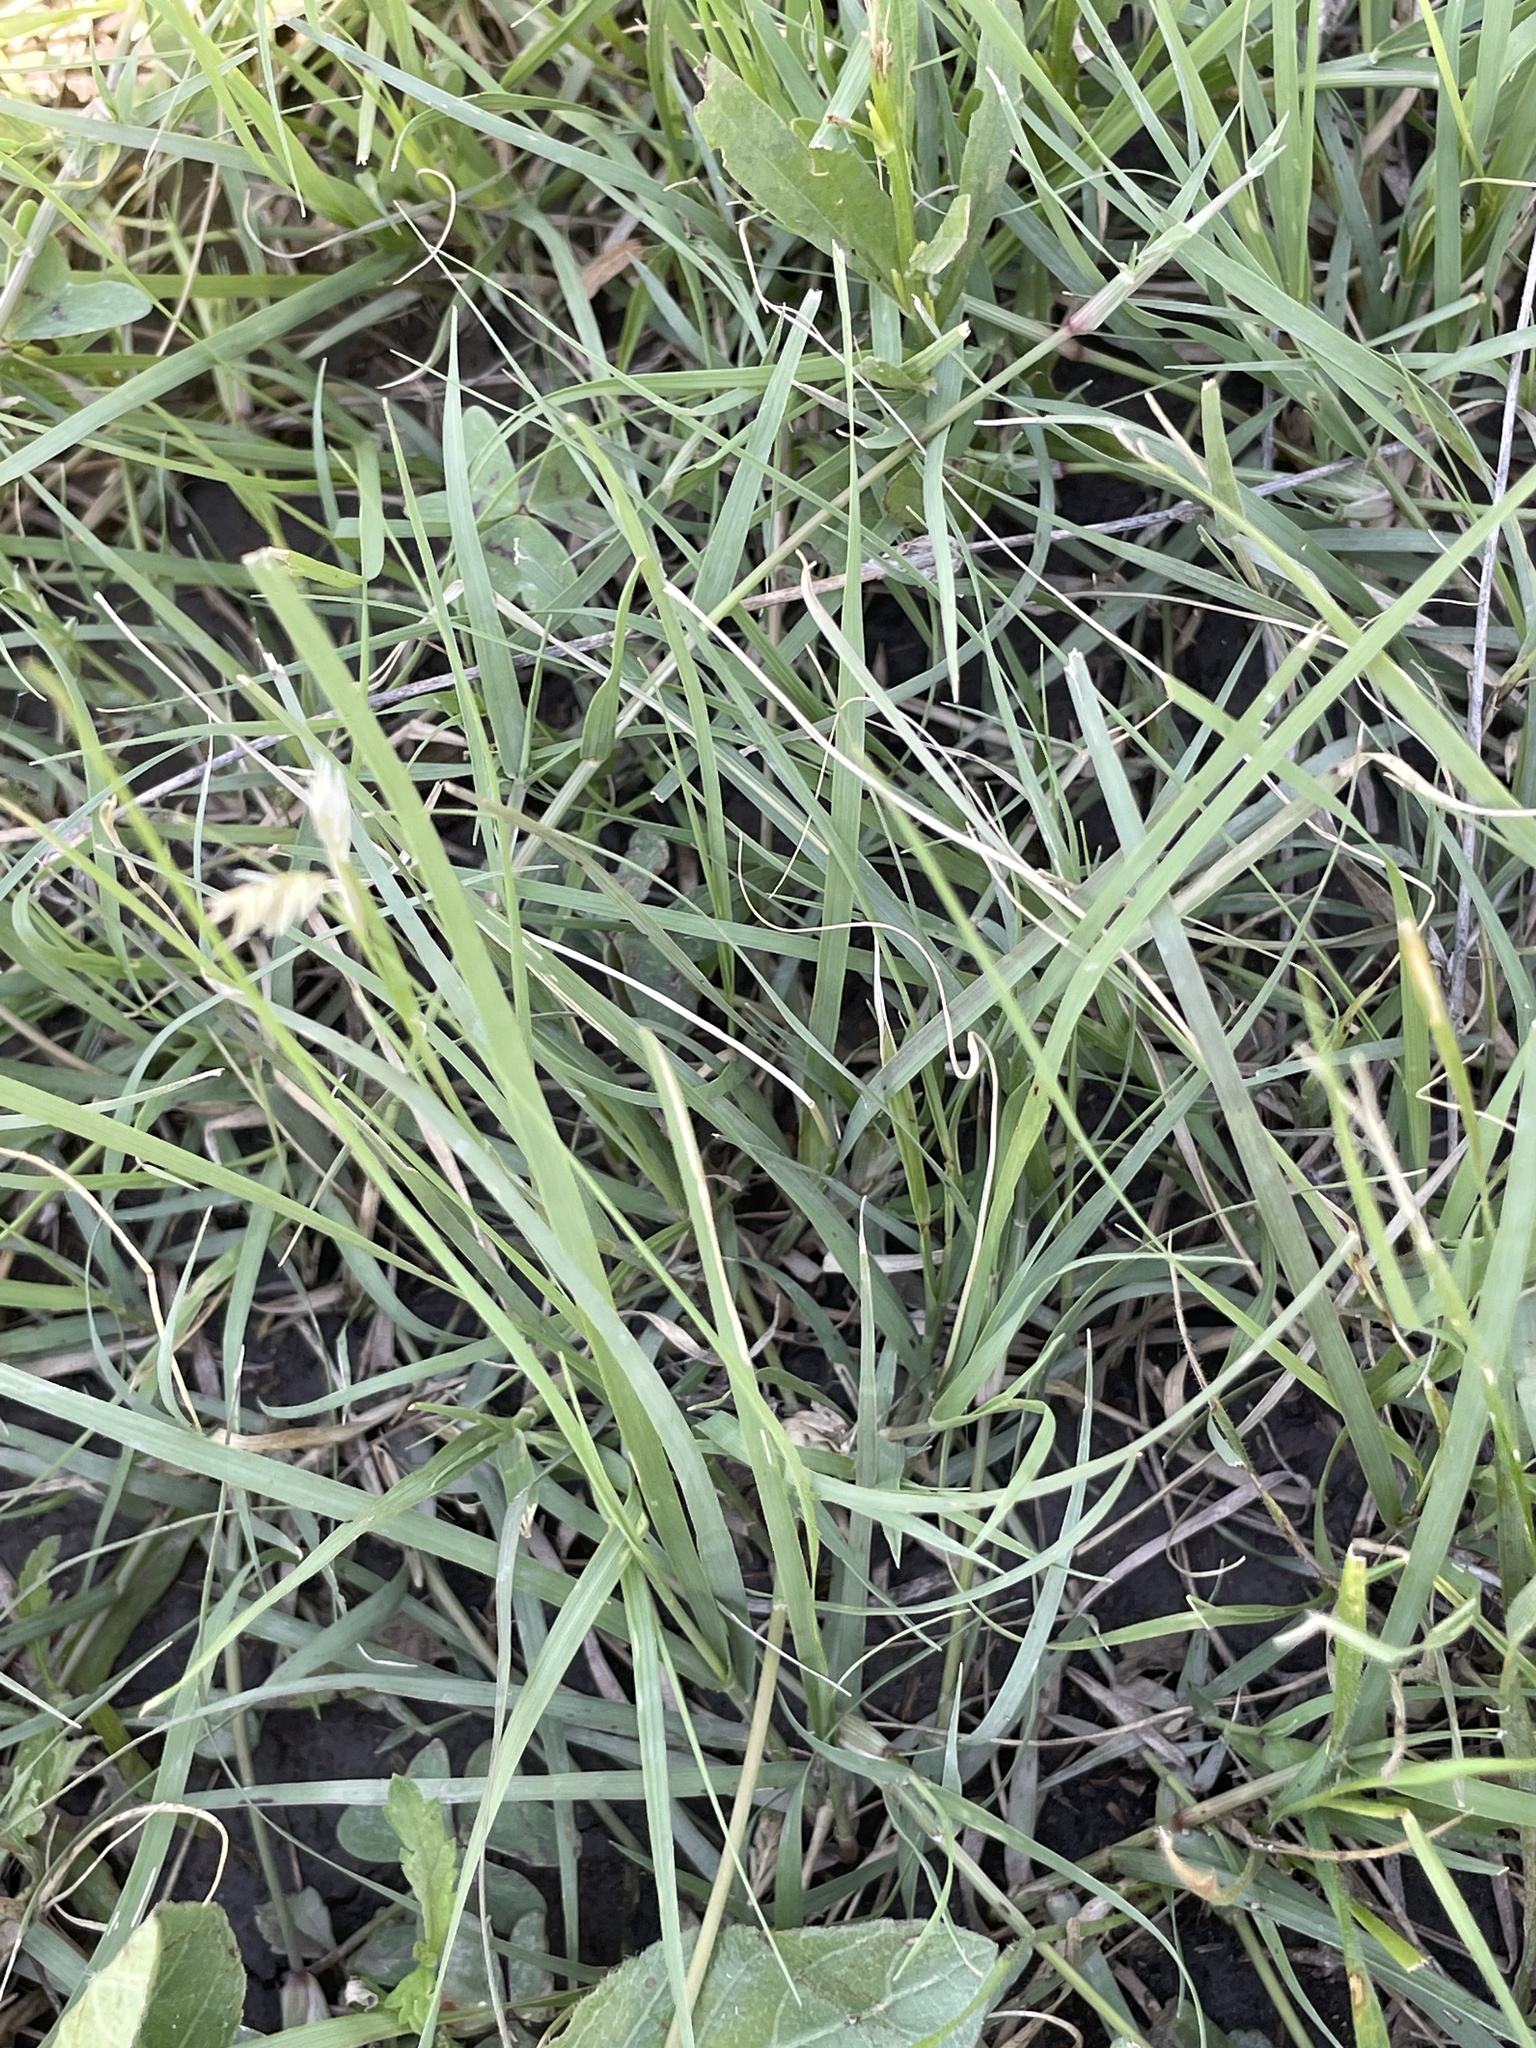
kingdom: Plantae
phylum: Tracheophyta
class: Liliopsida
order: Poales
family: Poaceae
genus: Bouteloua
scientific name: Bouteloua dactyloides
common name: Buffalo grass
